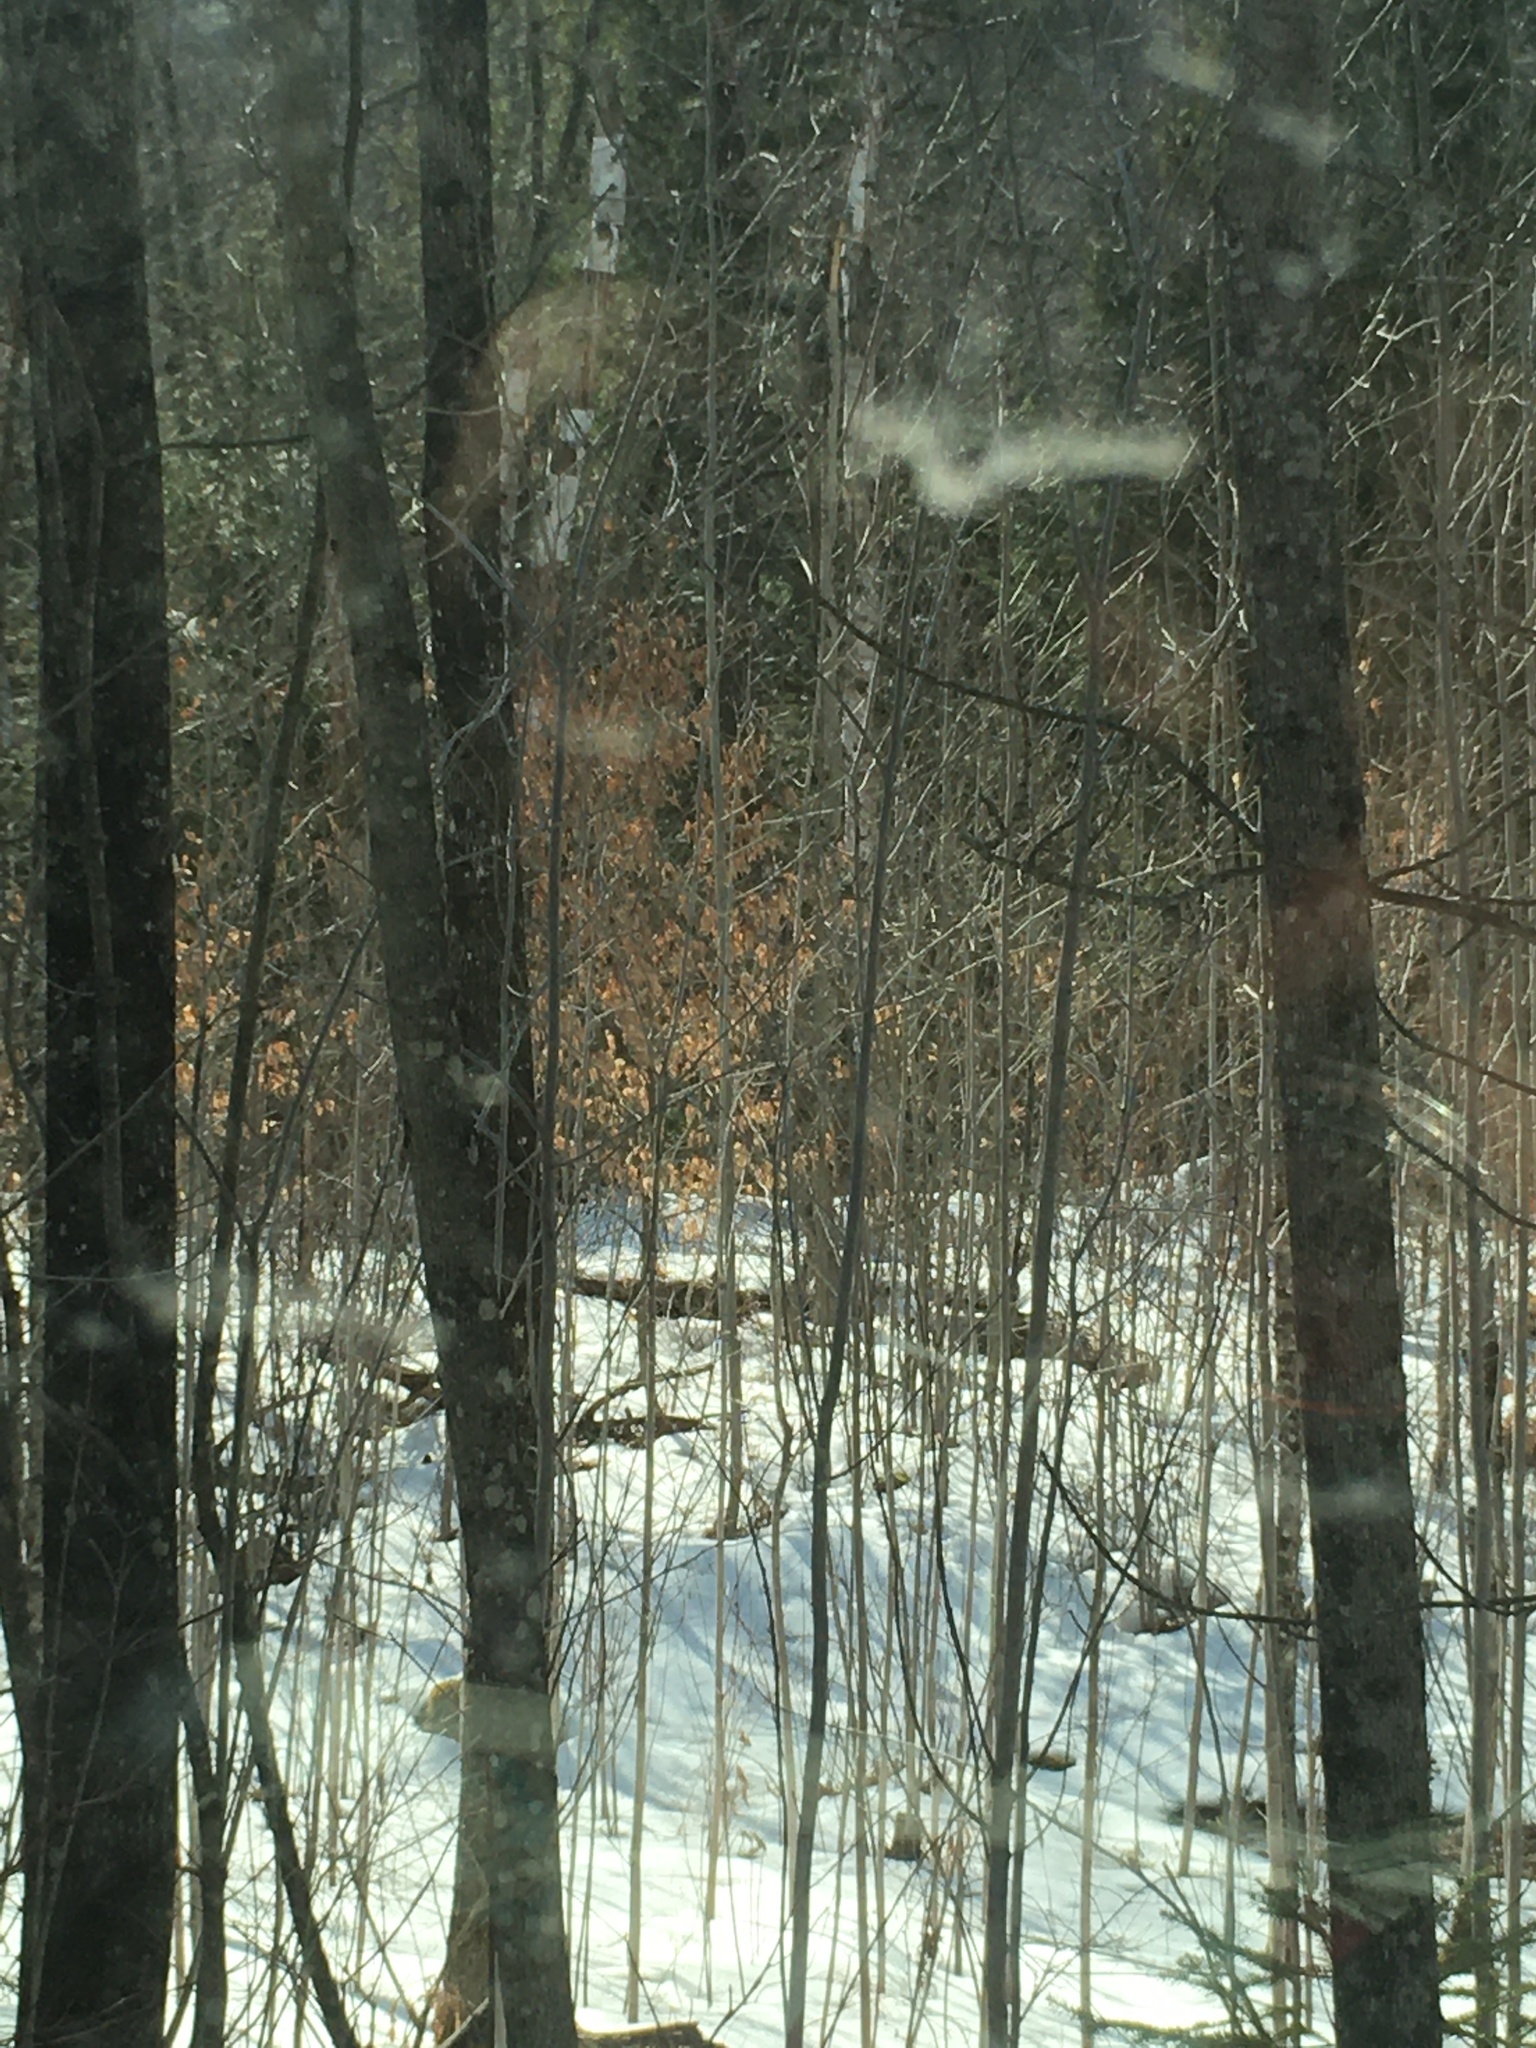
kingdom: Plantae
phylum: Tracheophyta
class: Magnoliopsida
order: Fagales
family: Fagaceae
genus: Fagus
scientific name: Fagus grandifolia
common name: American beech
